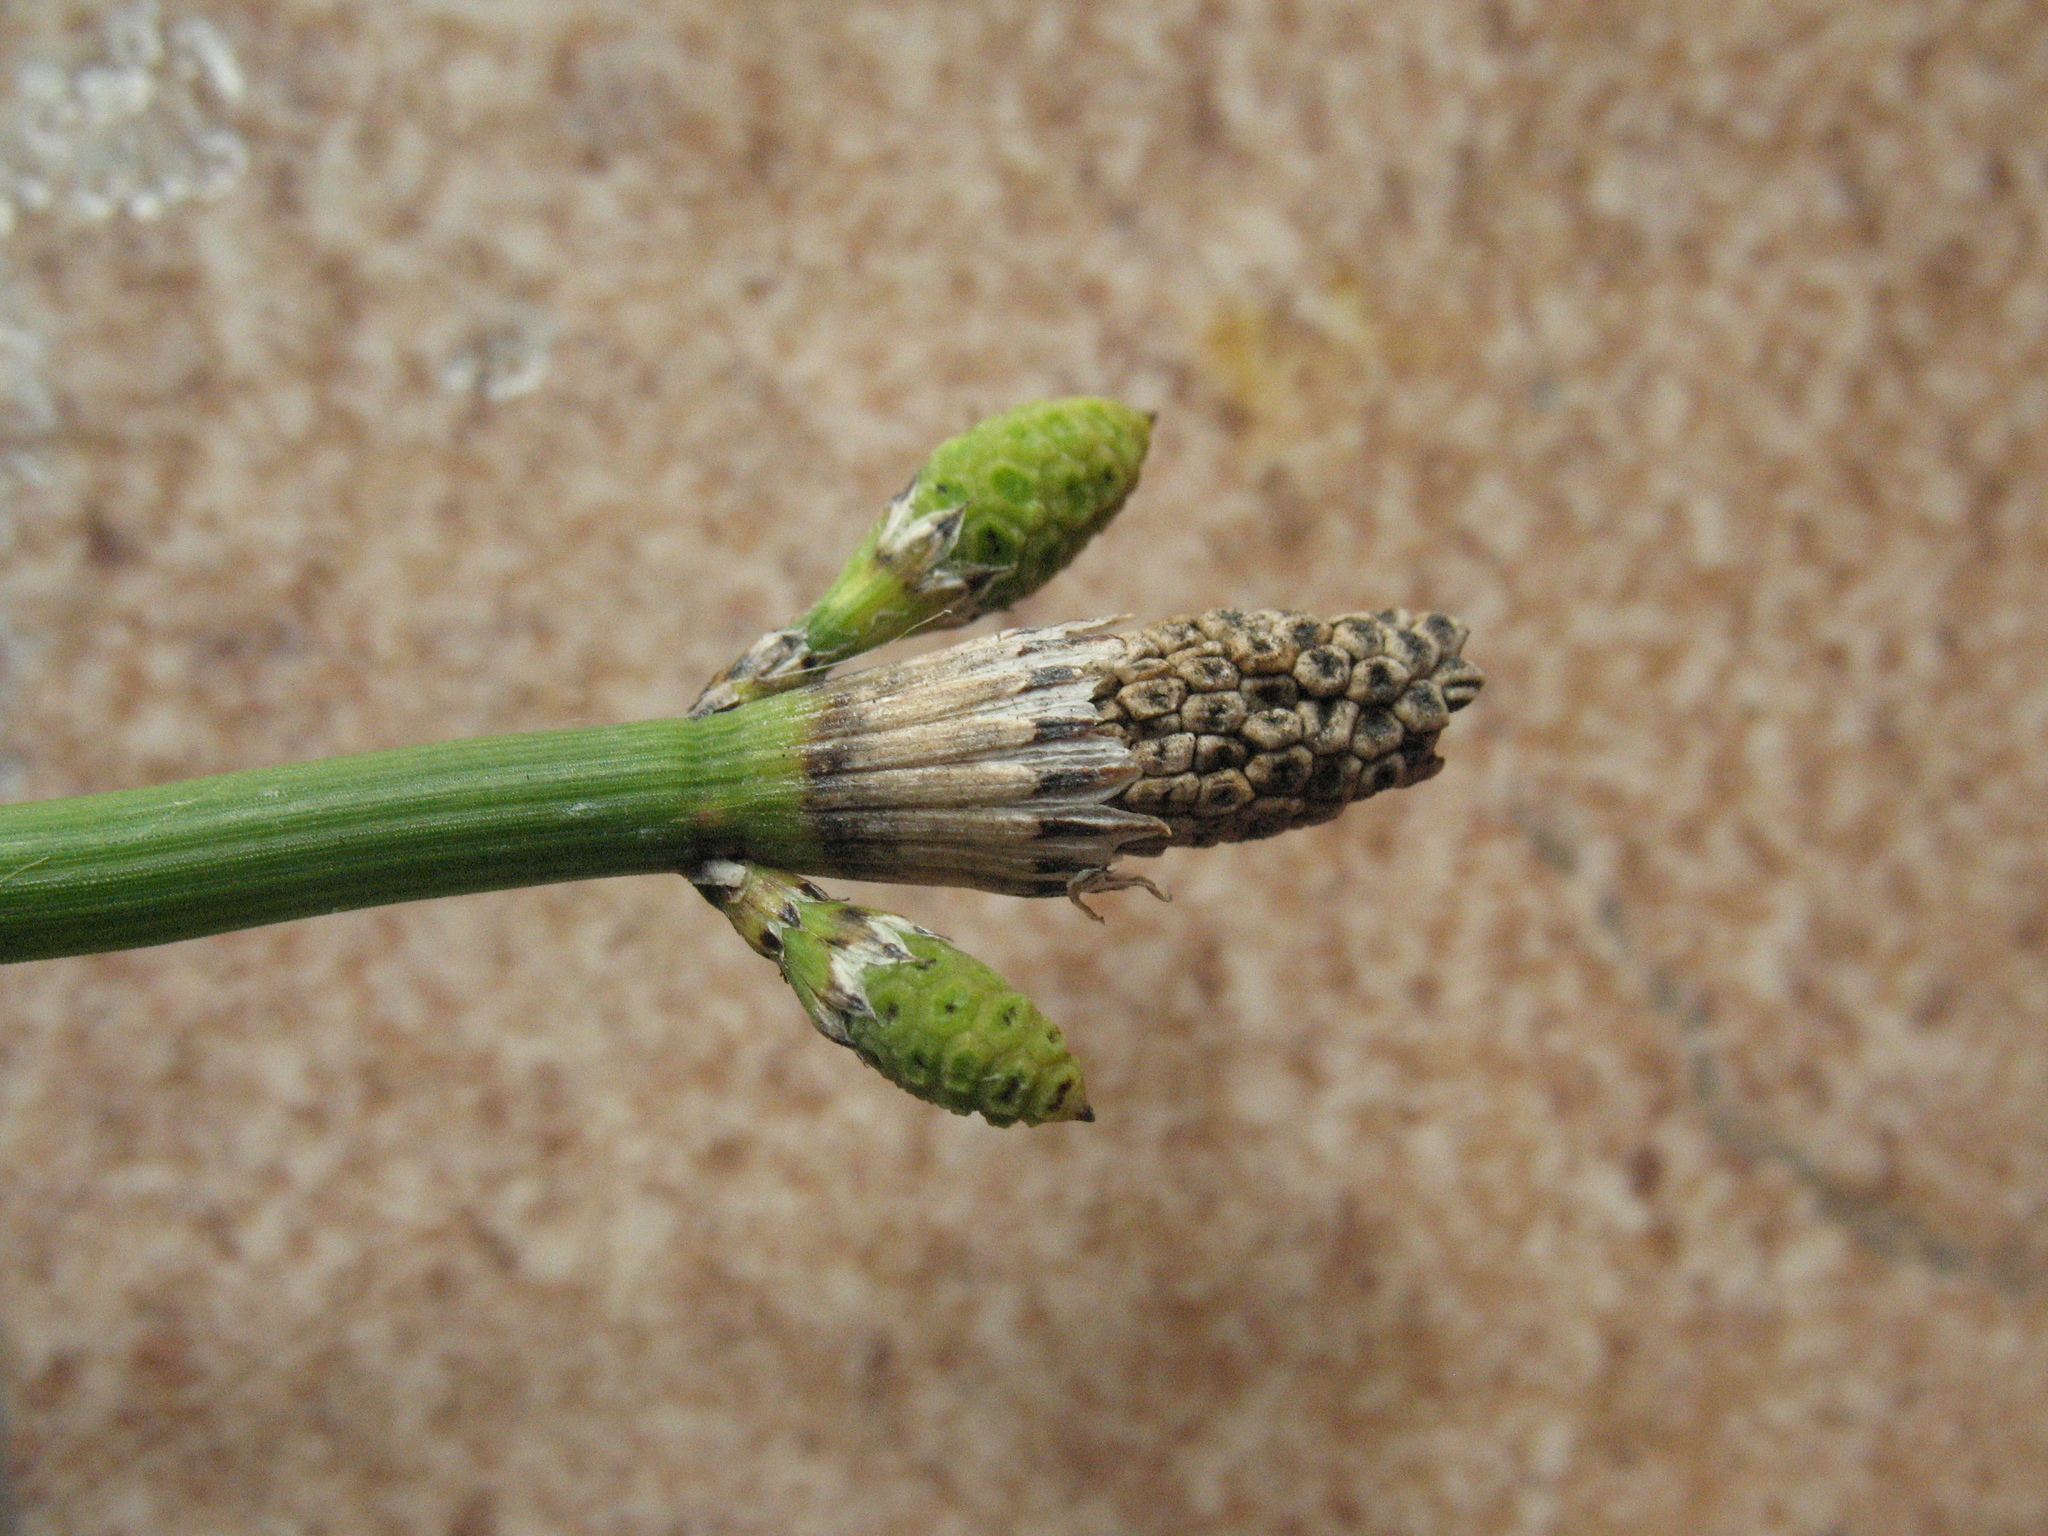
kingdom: Plantae
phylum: Tracheophyta
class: Polypodiopsida
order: Equisetales
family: Equisetaceae
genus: Equisetum
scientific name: Equisetum moorei
